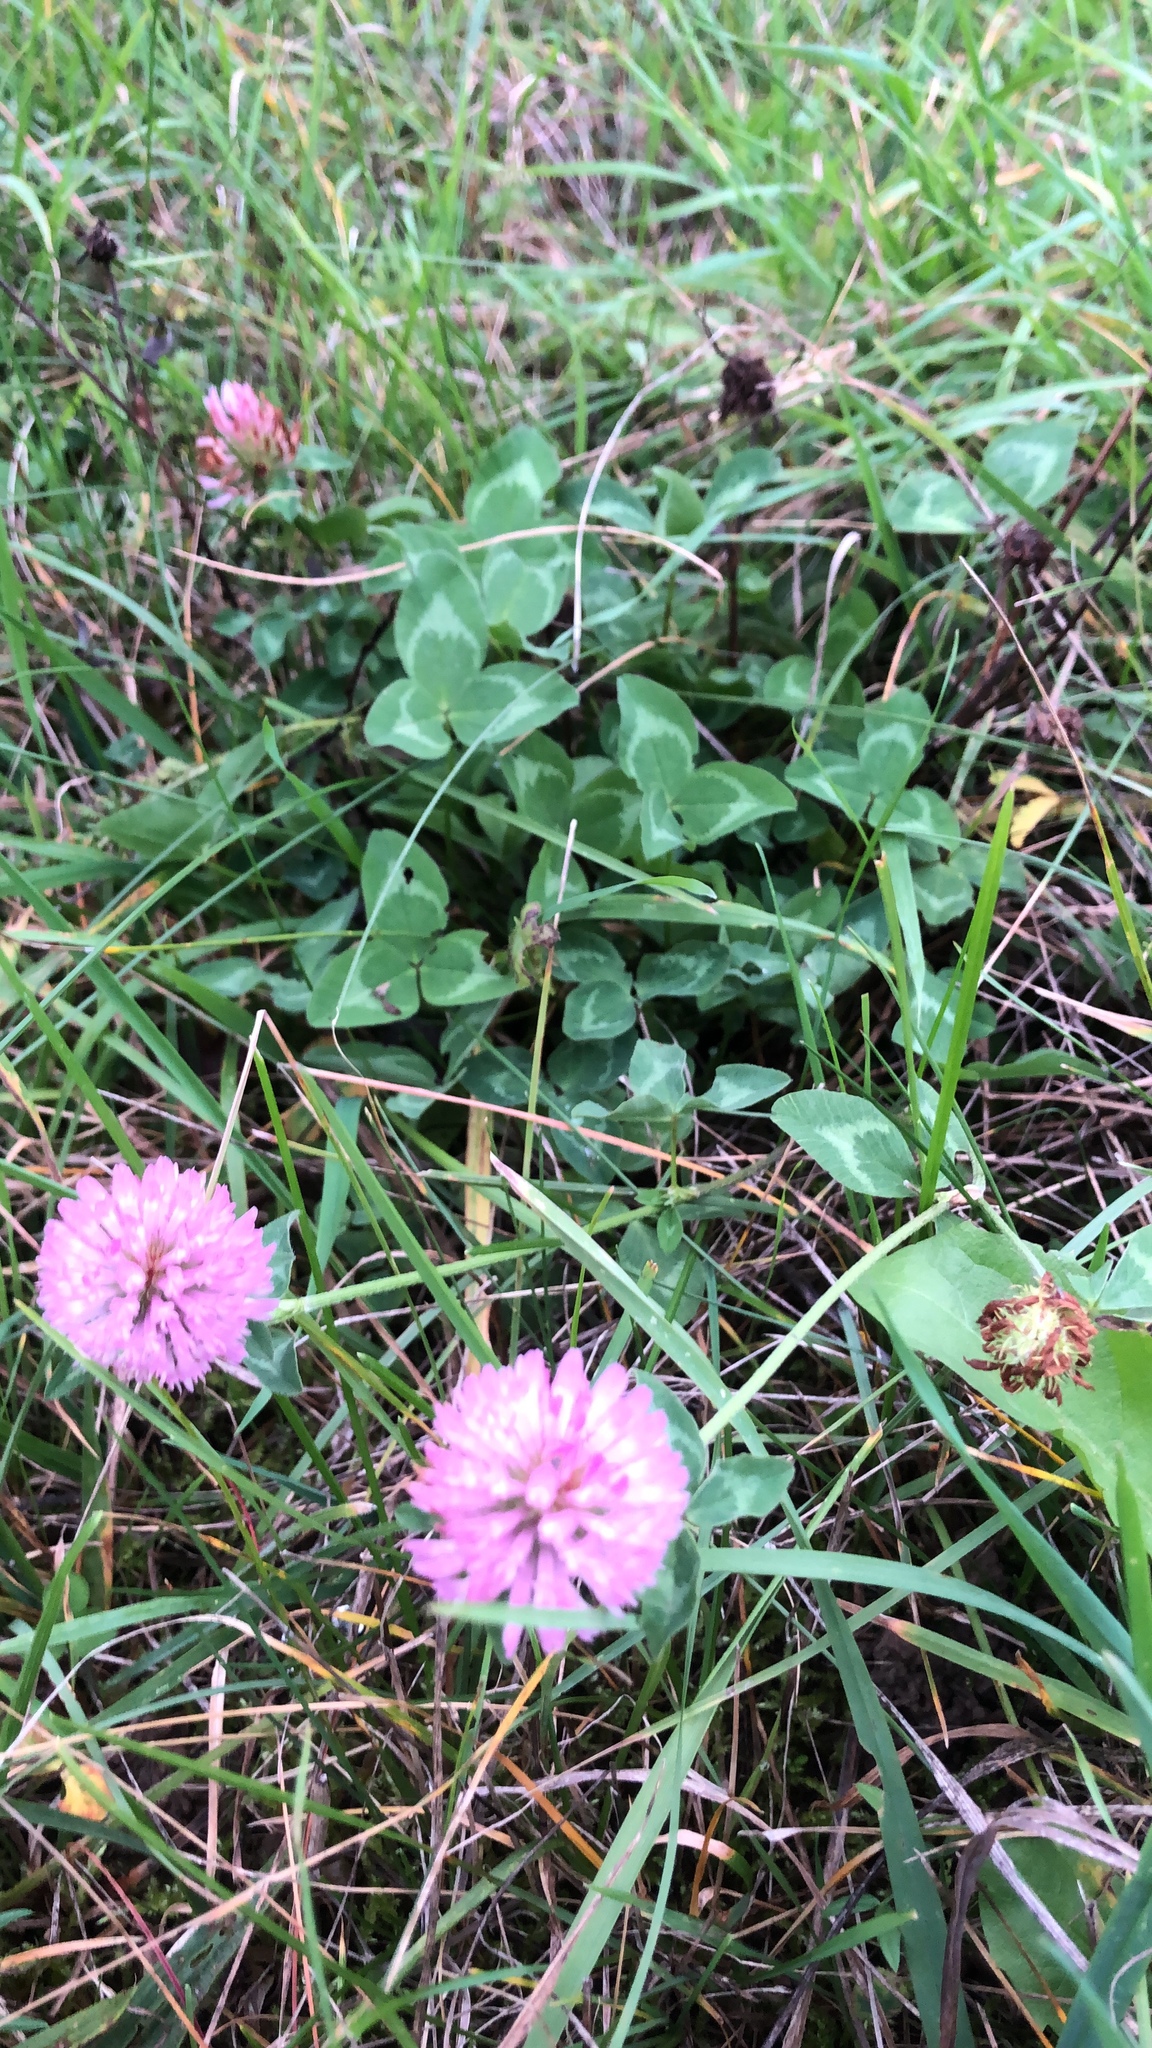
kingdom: Plantae
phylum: Tracheophyta
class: Magnoliopsida
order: Fabales
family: Fabaceae
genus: Trifolium
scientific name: Trifolium pratense
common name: Red clover
